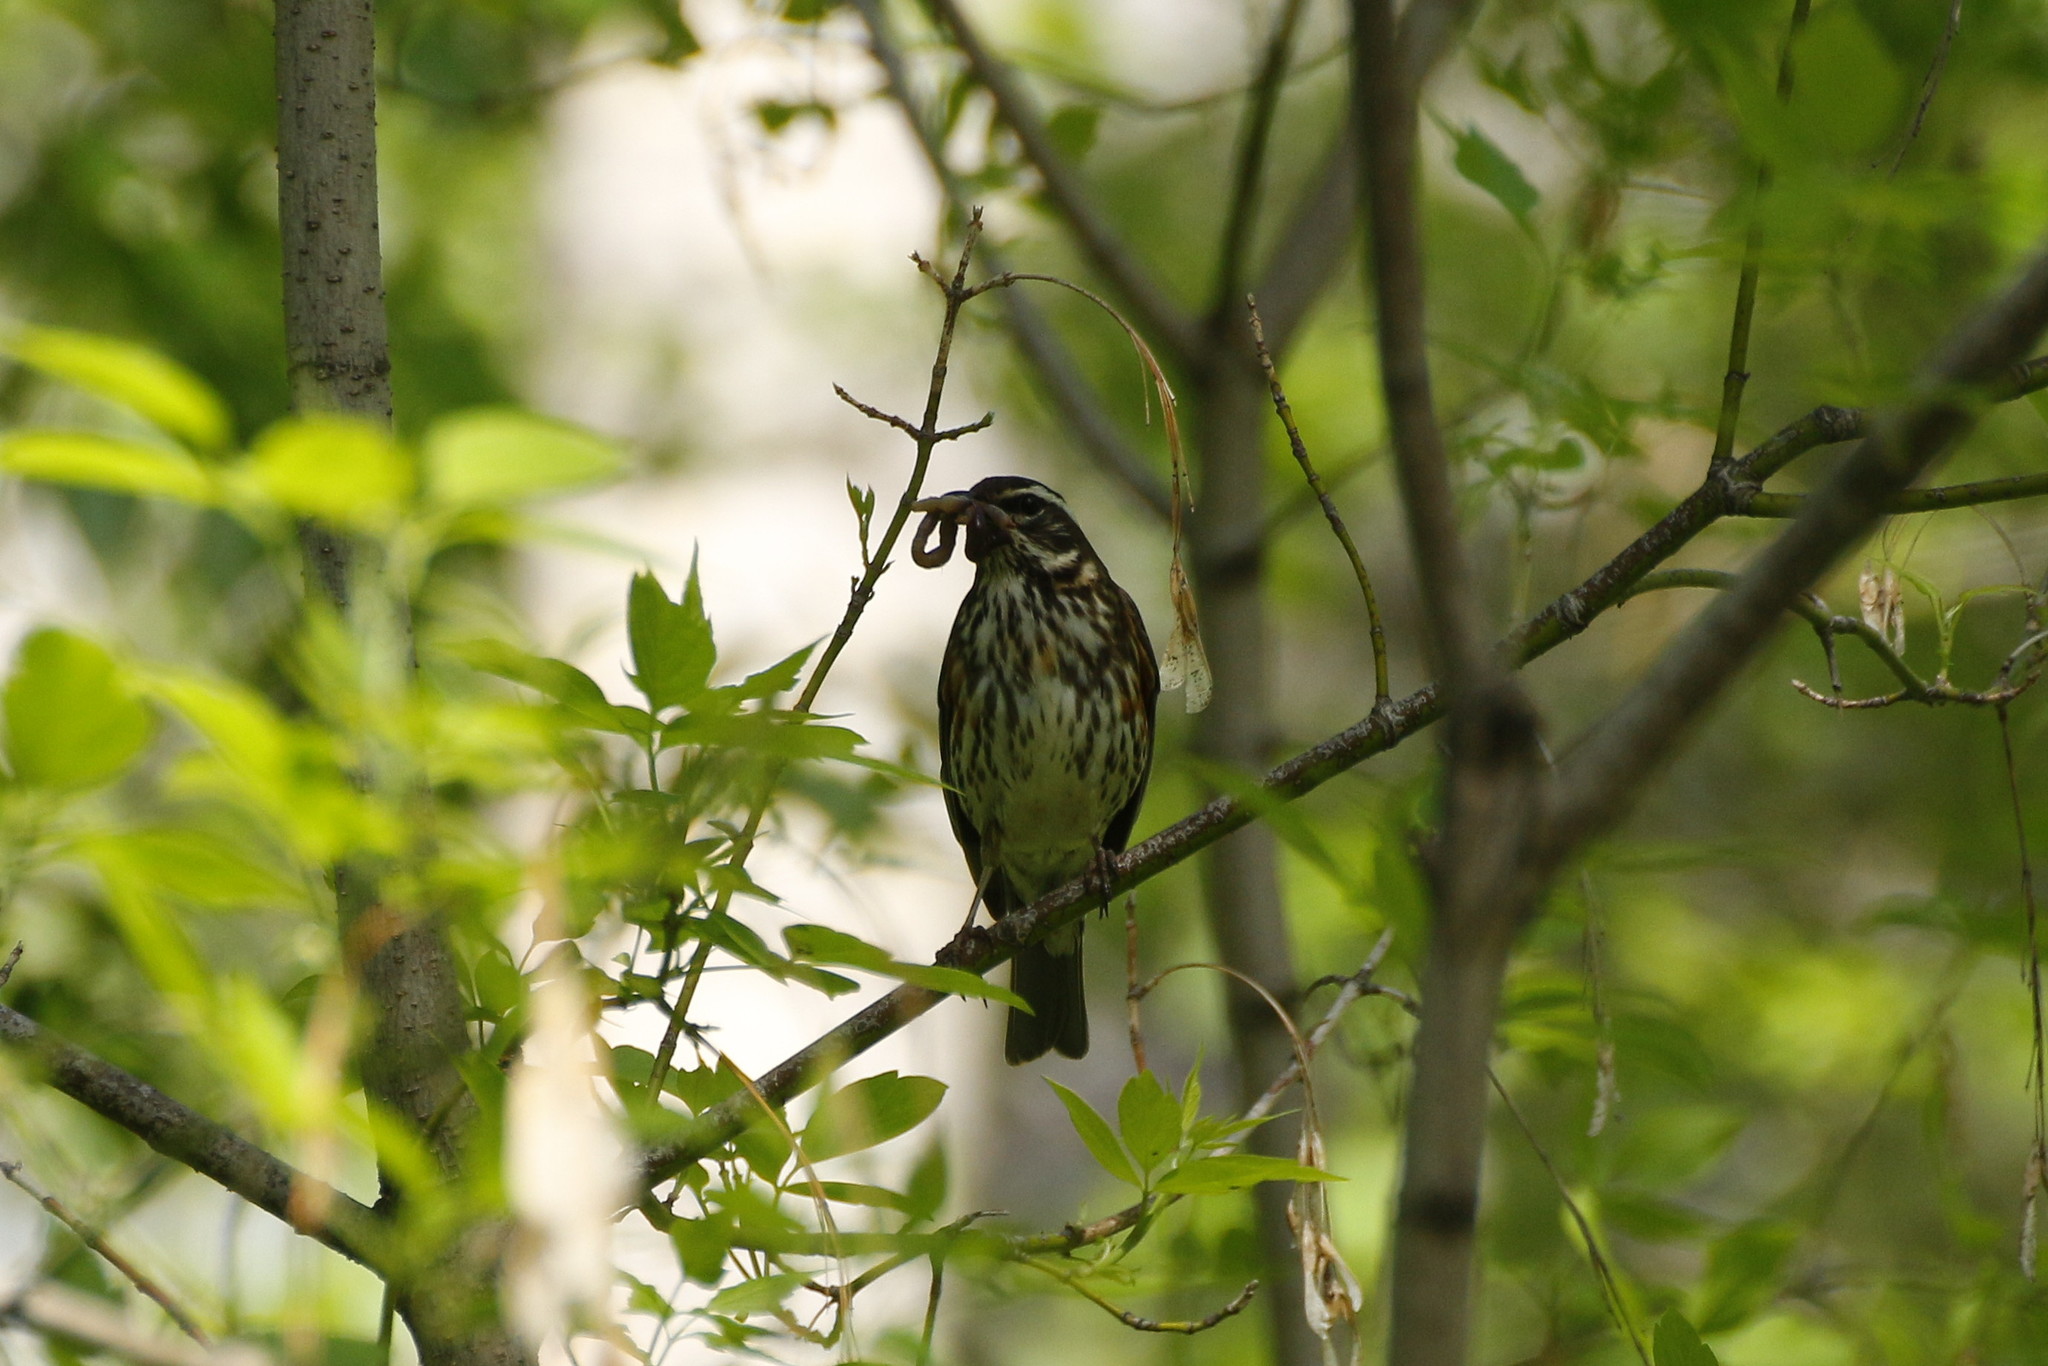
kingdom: Animalia
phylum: Chordata
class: Aves
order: Passeriformes
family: Turdidae
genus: Turdus
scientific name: Turdus iliacus
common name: Redwing
